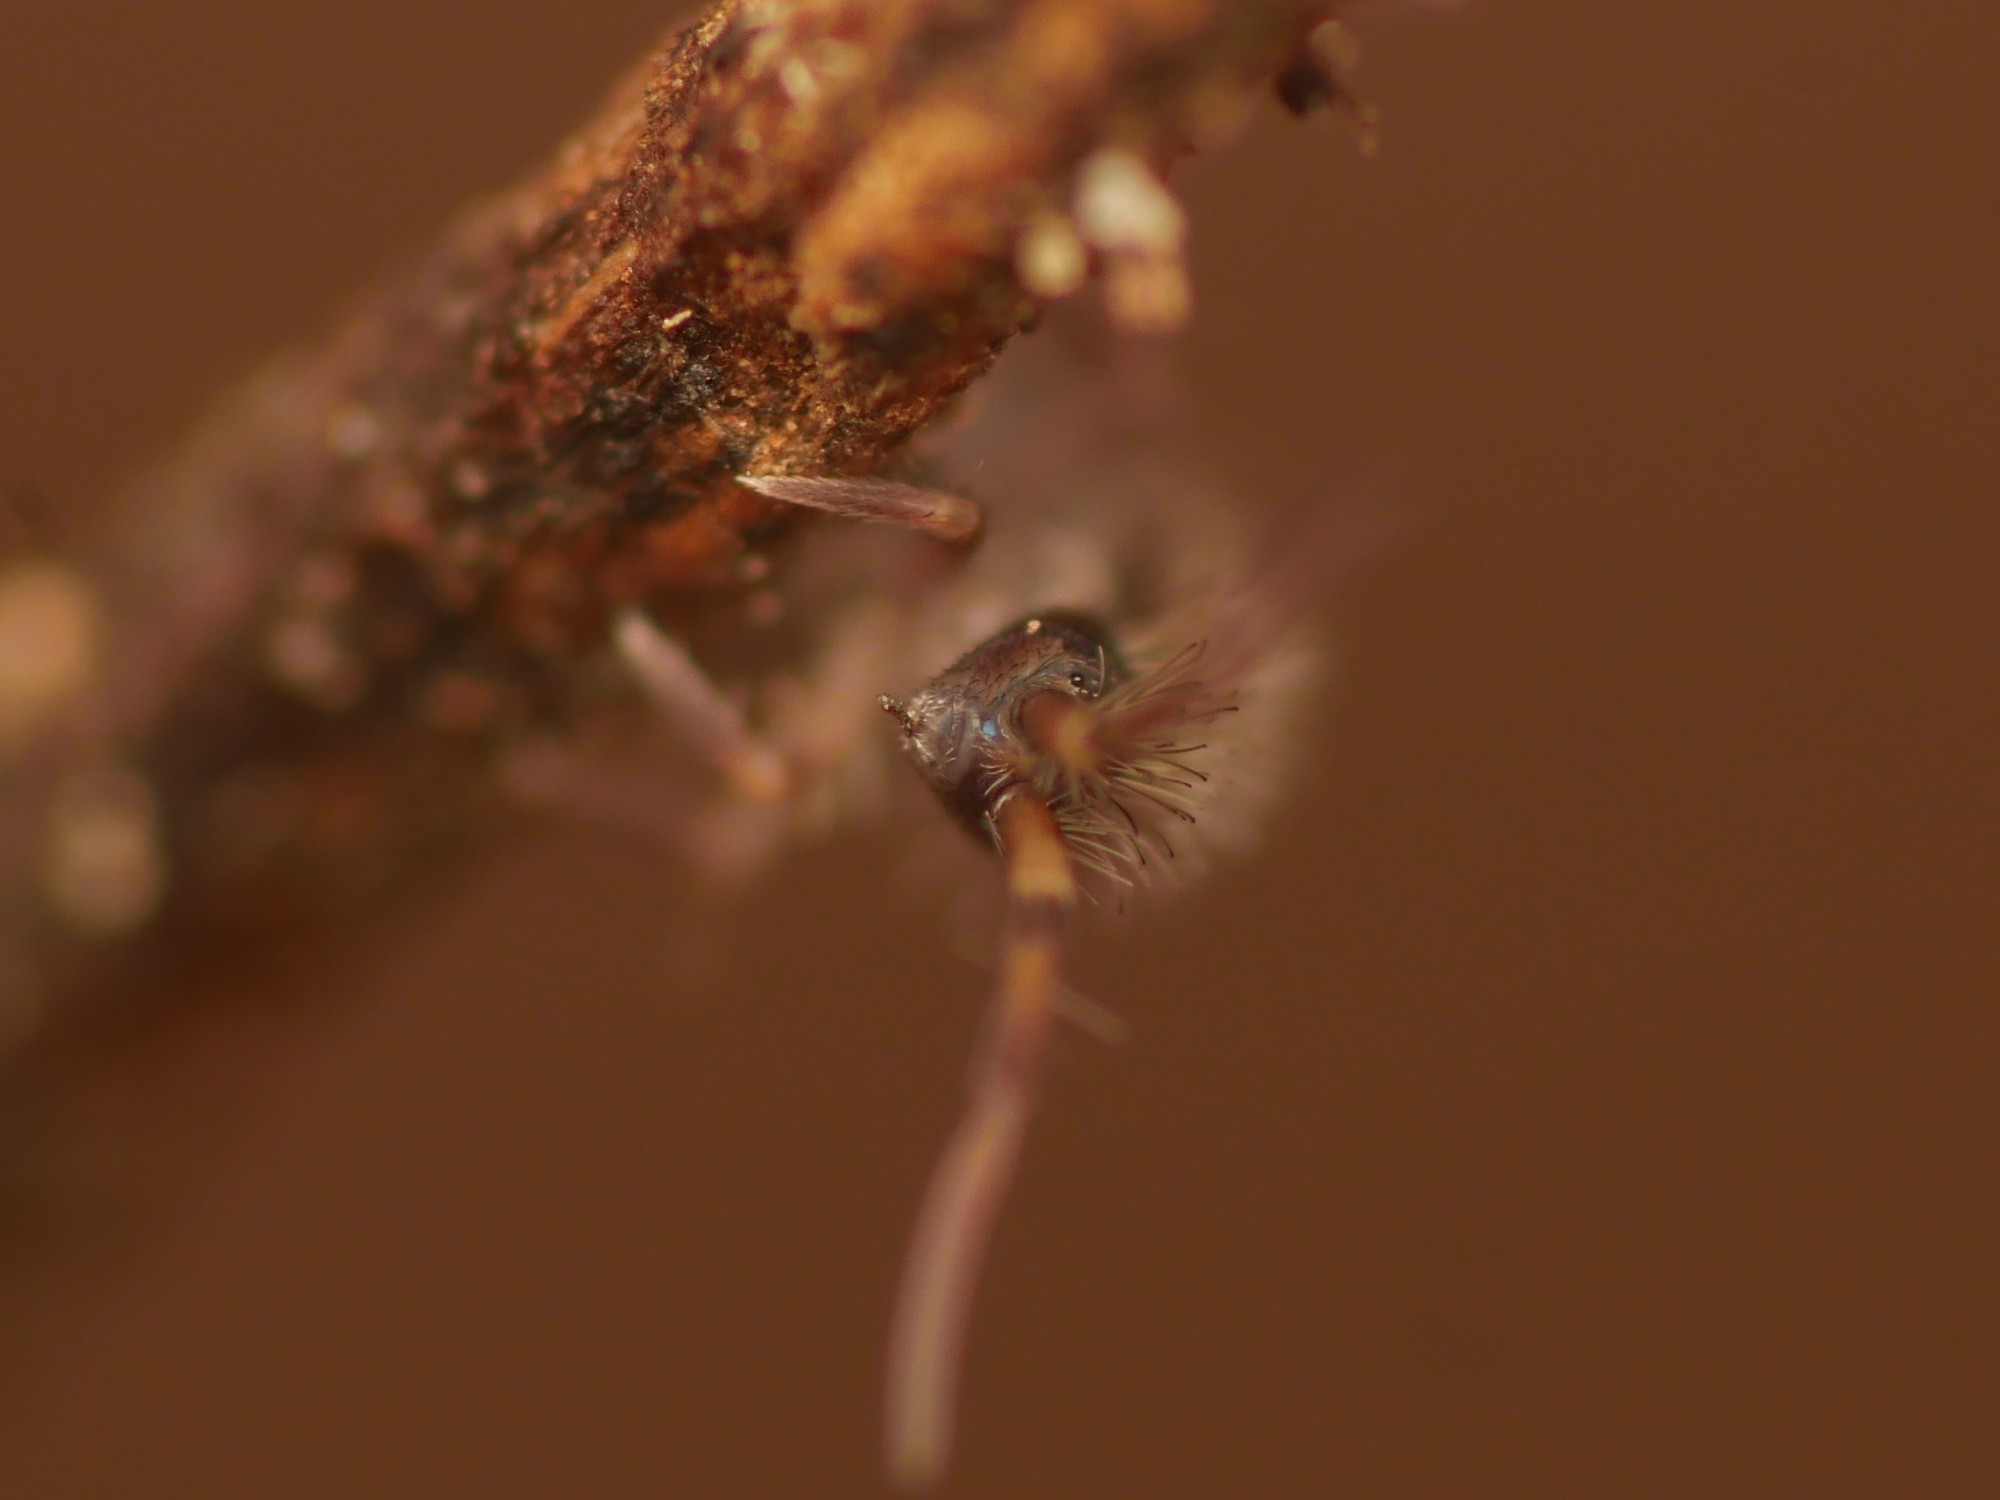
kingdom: Animalia
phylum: Arthropoda
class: Collembola
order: Entomobryomorpha
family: Orchesellidae
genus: Orchesella
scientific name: Orchesella cincta
